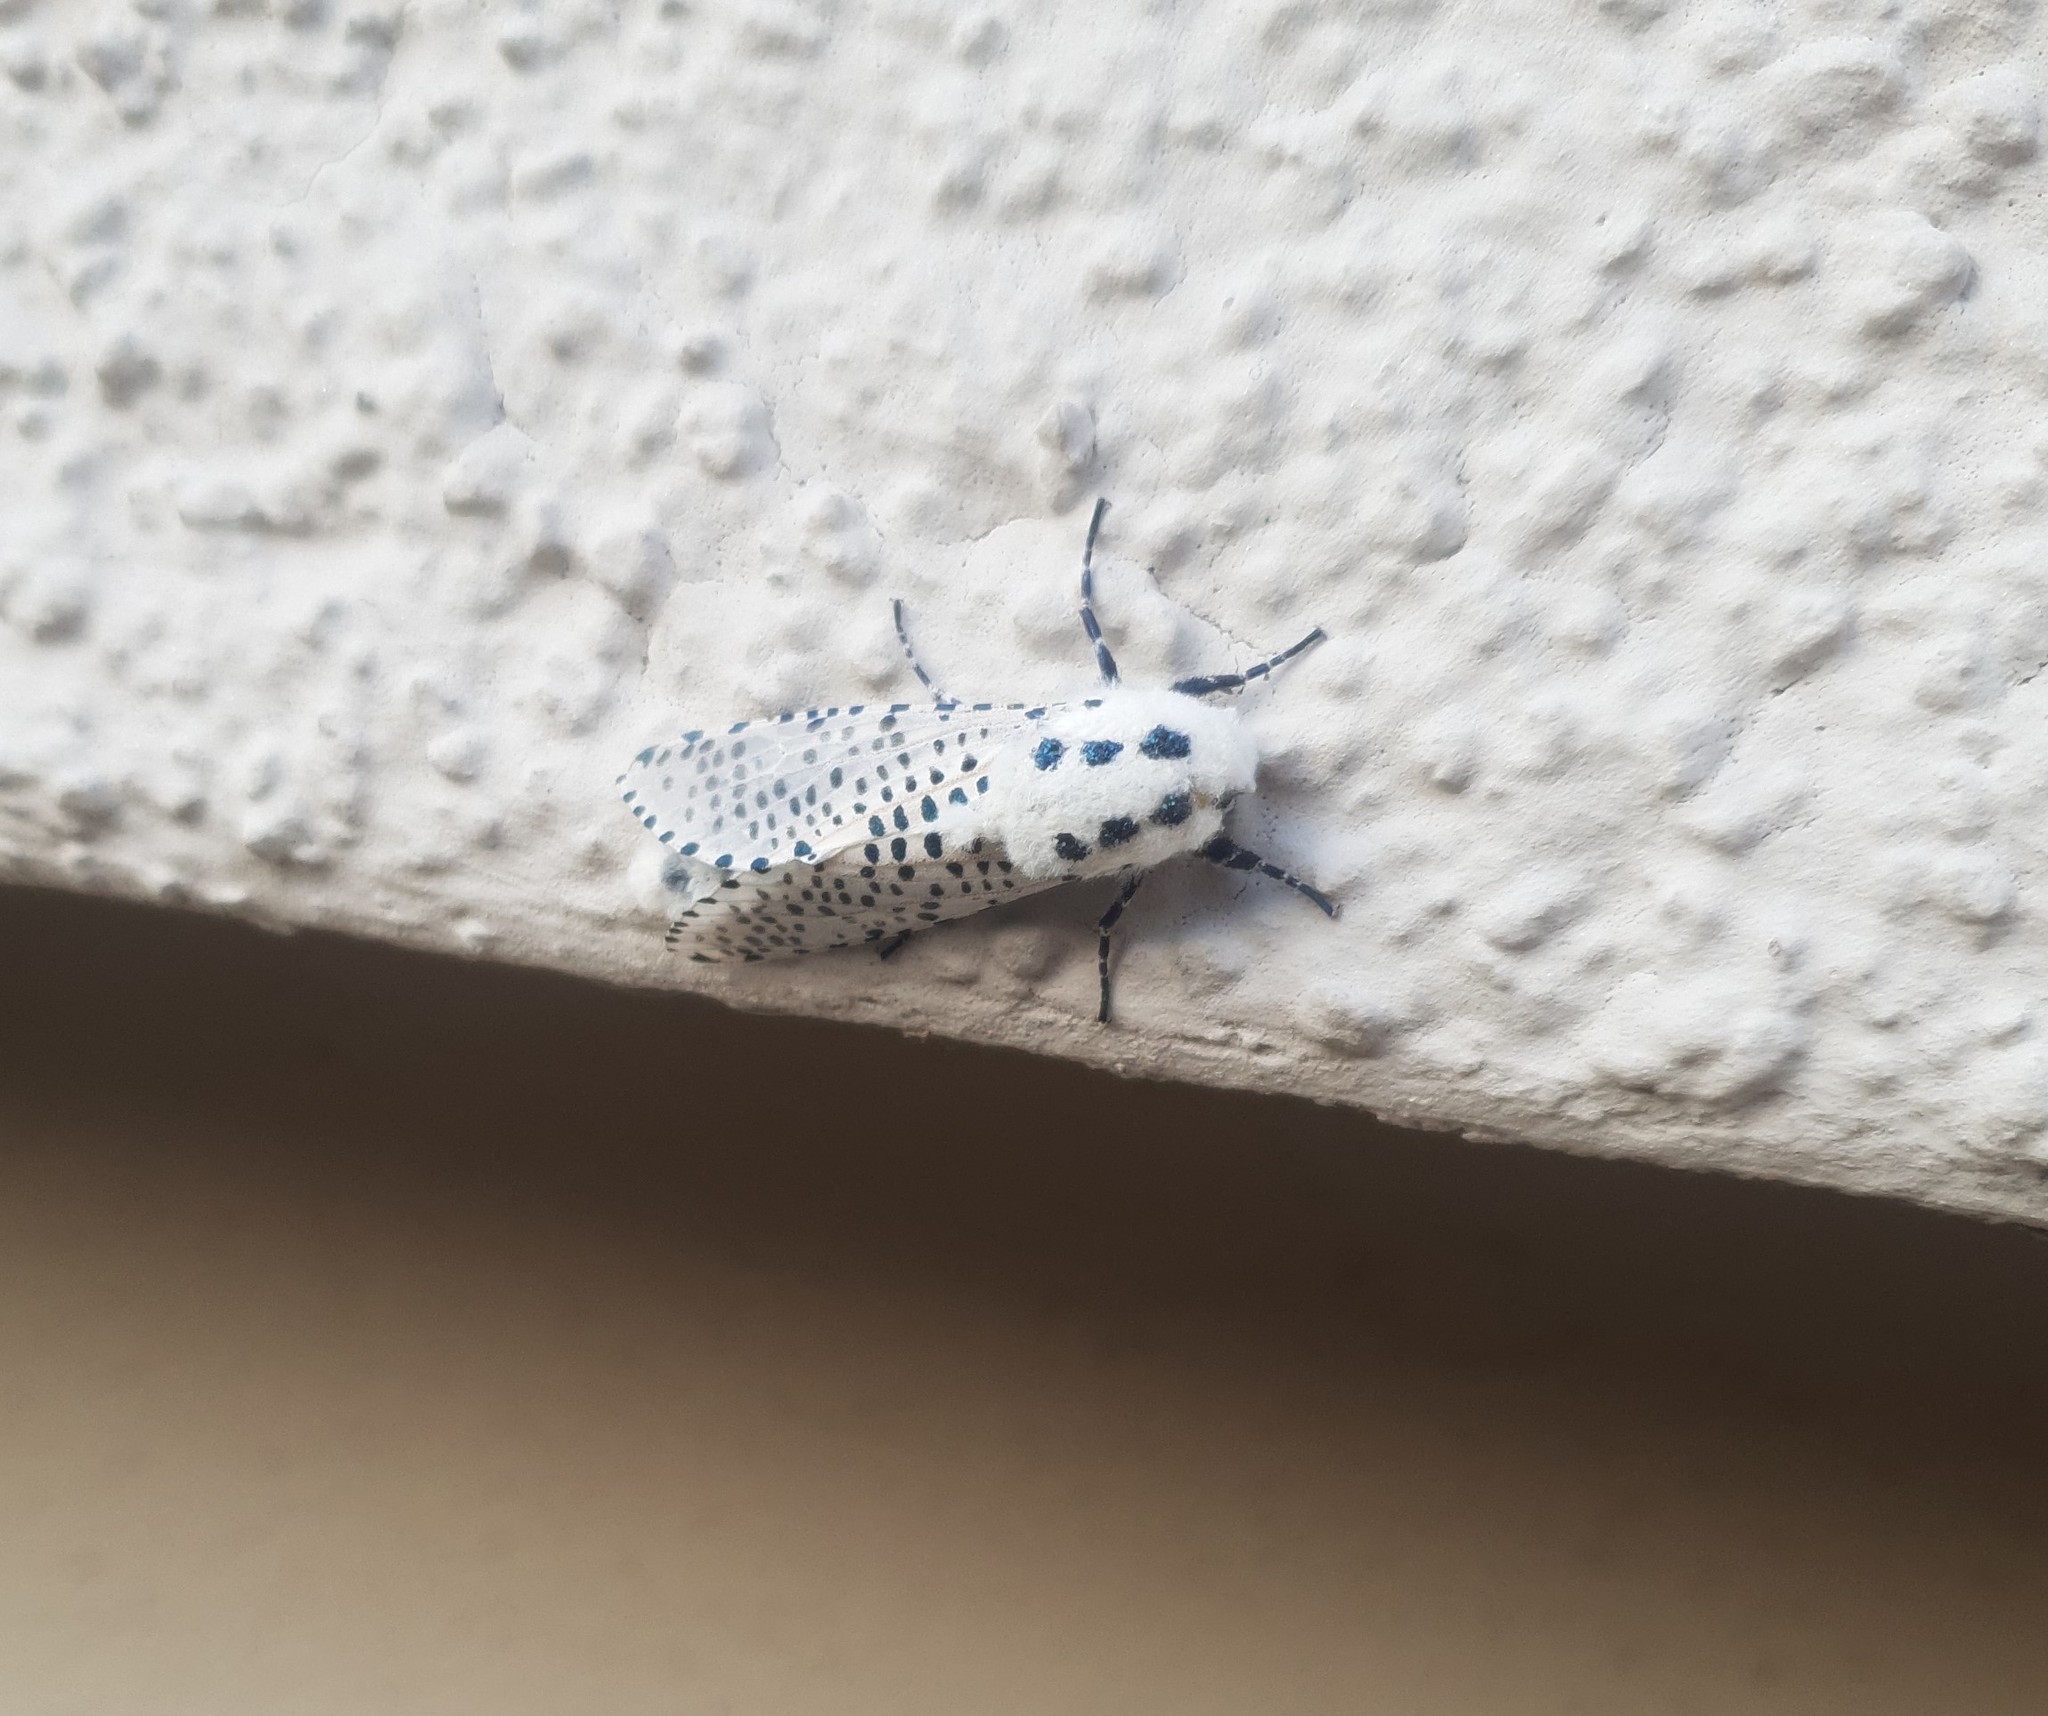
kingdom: Animalia
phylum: Arthropoda
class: Insecta
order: Lepidoptera
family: Cossidae
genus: Zeuzera
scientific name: Zeuzera pyrina
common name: Leopard moth
